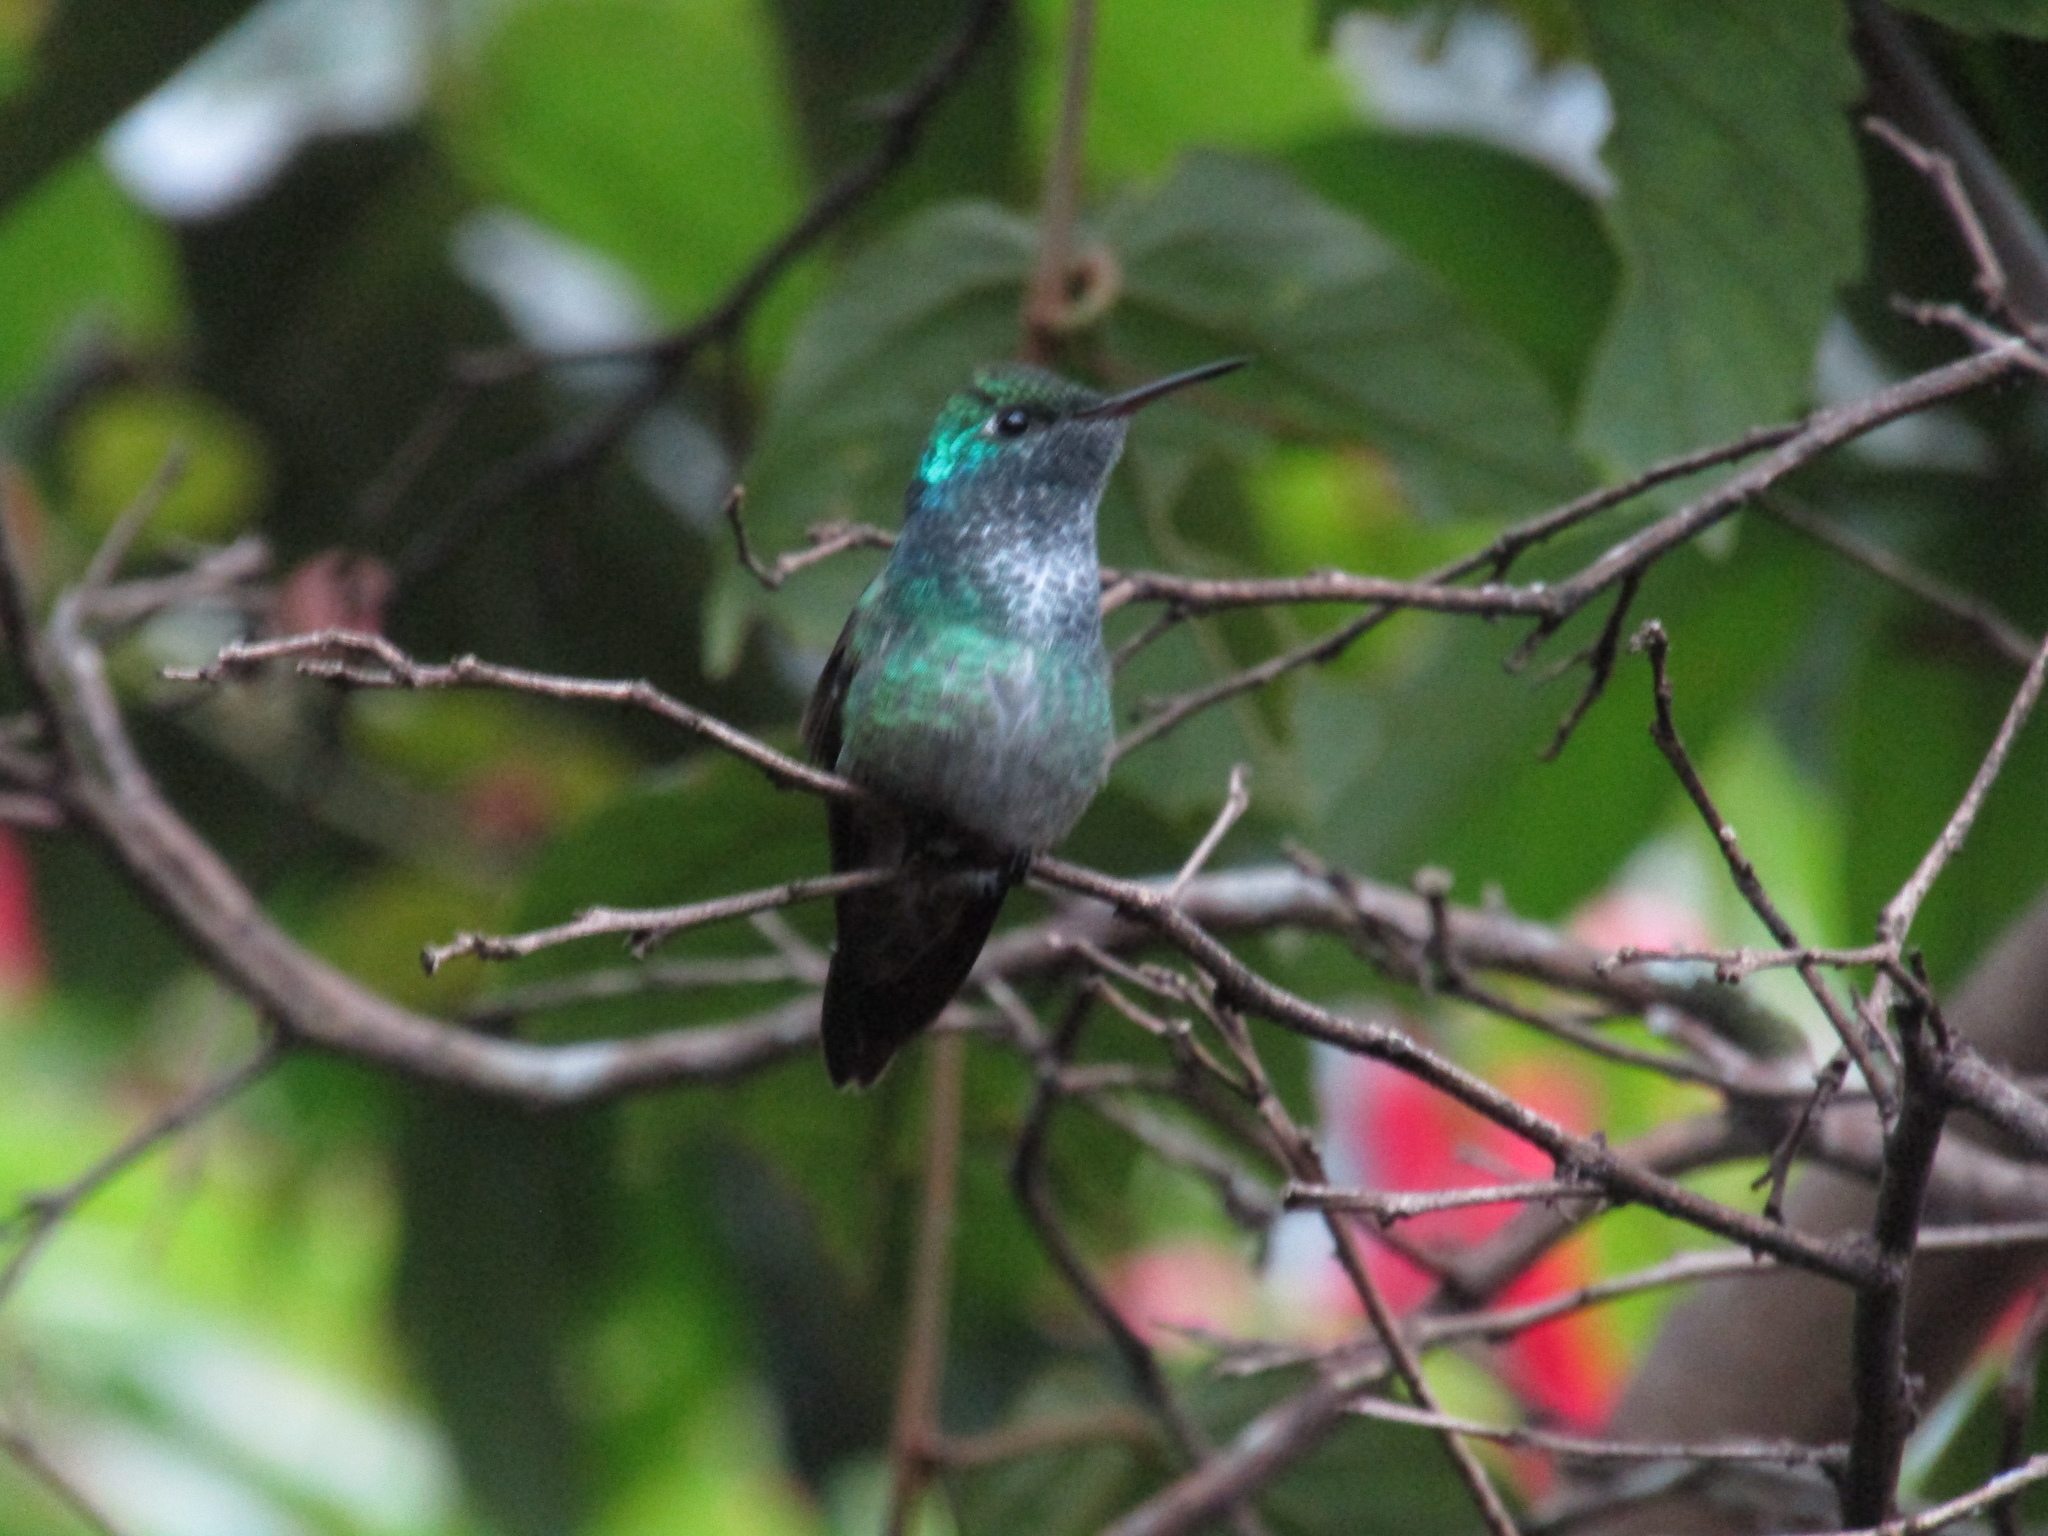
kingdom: Animalia
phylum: Chordata
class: Aves
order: Apodiformes
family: Trochilidae
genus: Chrysuronia
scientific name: Chrysuronia versicolor
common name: Versicolored emerald
